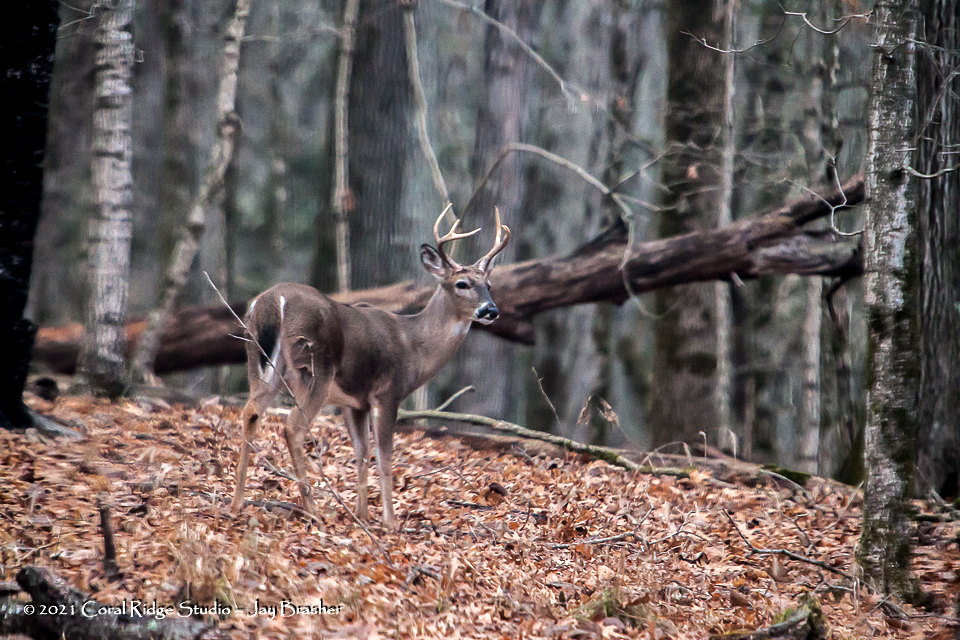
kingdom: Animalia
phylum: Chordata
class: Mammalia
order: Artiodactyla
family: Cervidae
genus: Odocoileus
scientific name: Odocoileus virginianus
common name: White-tailed deer
